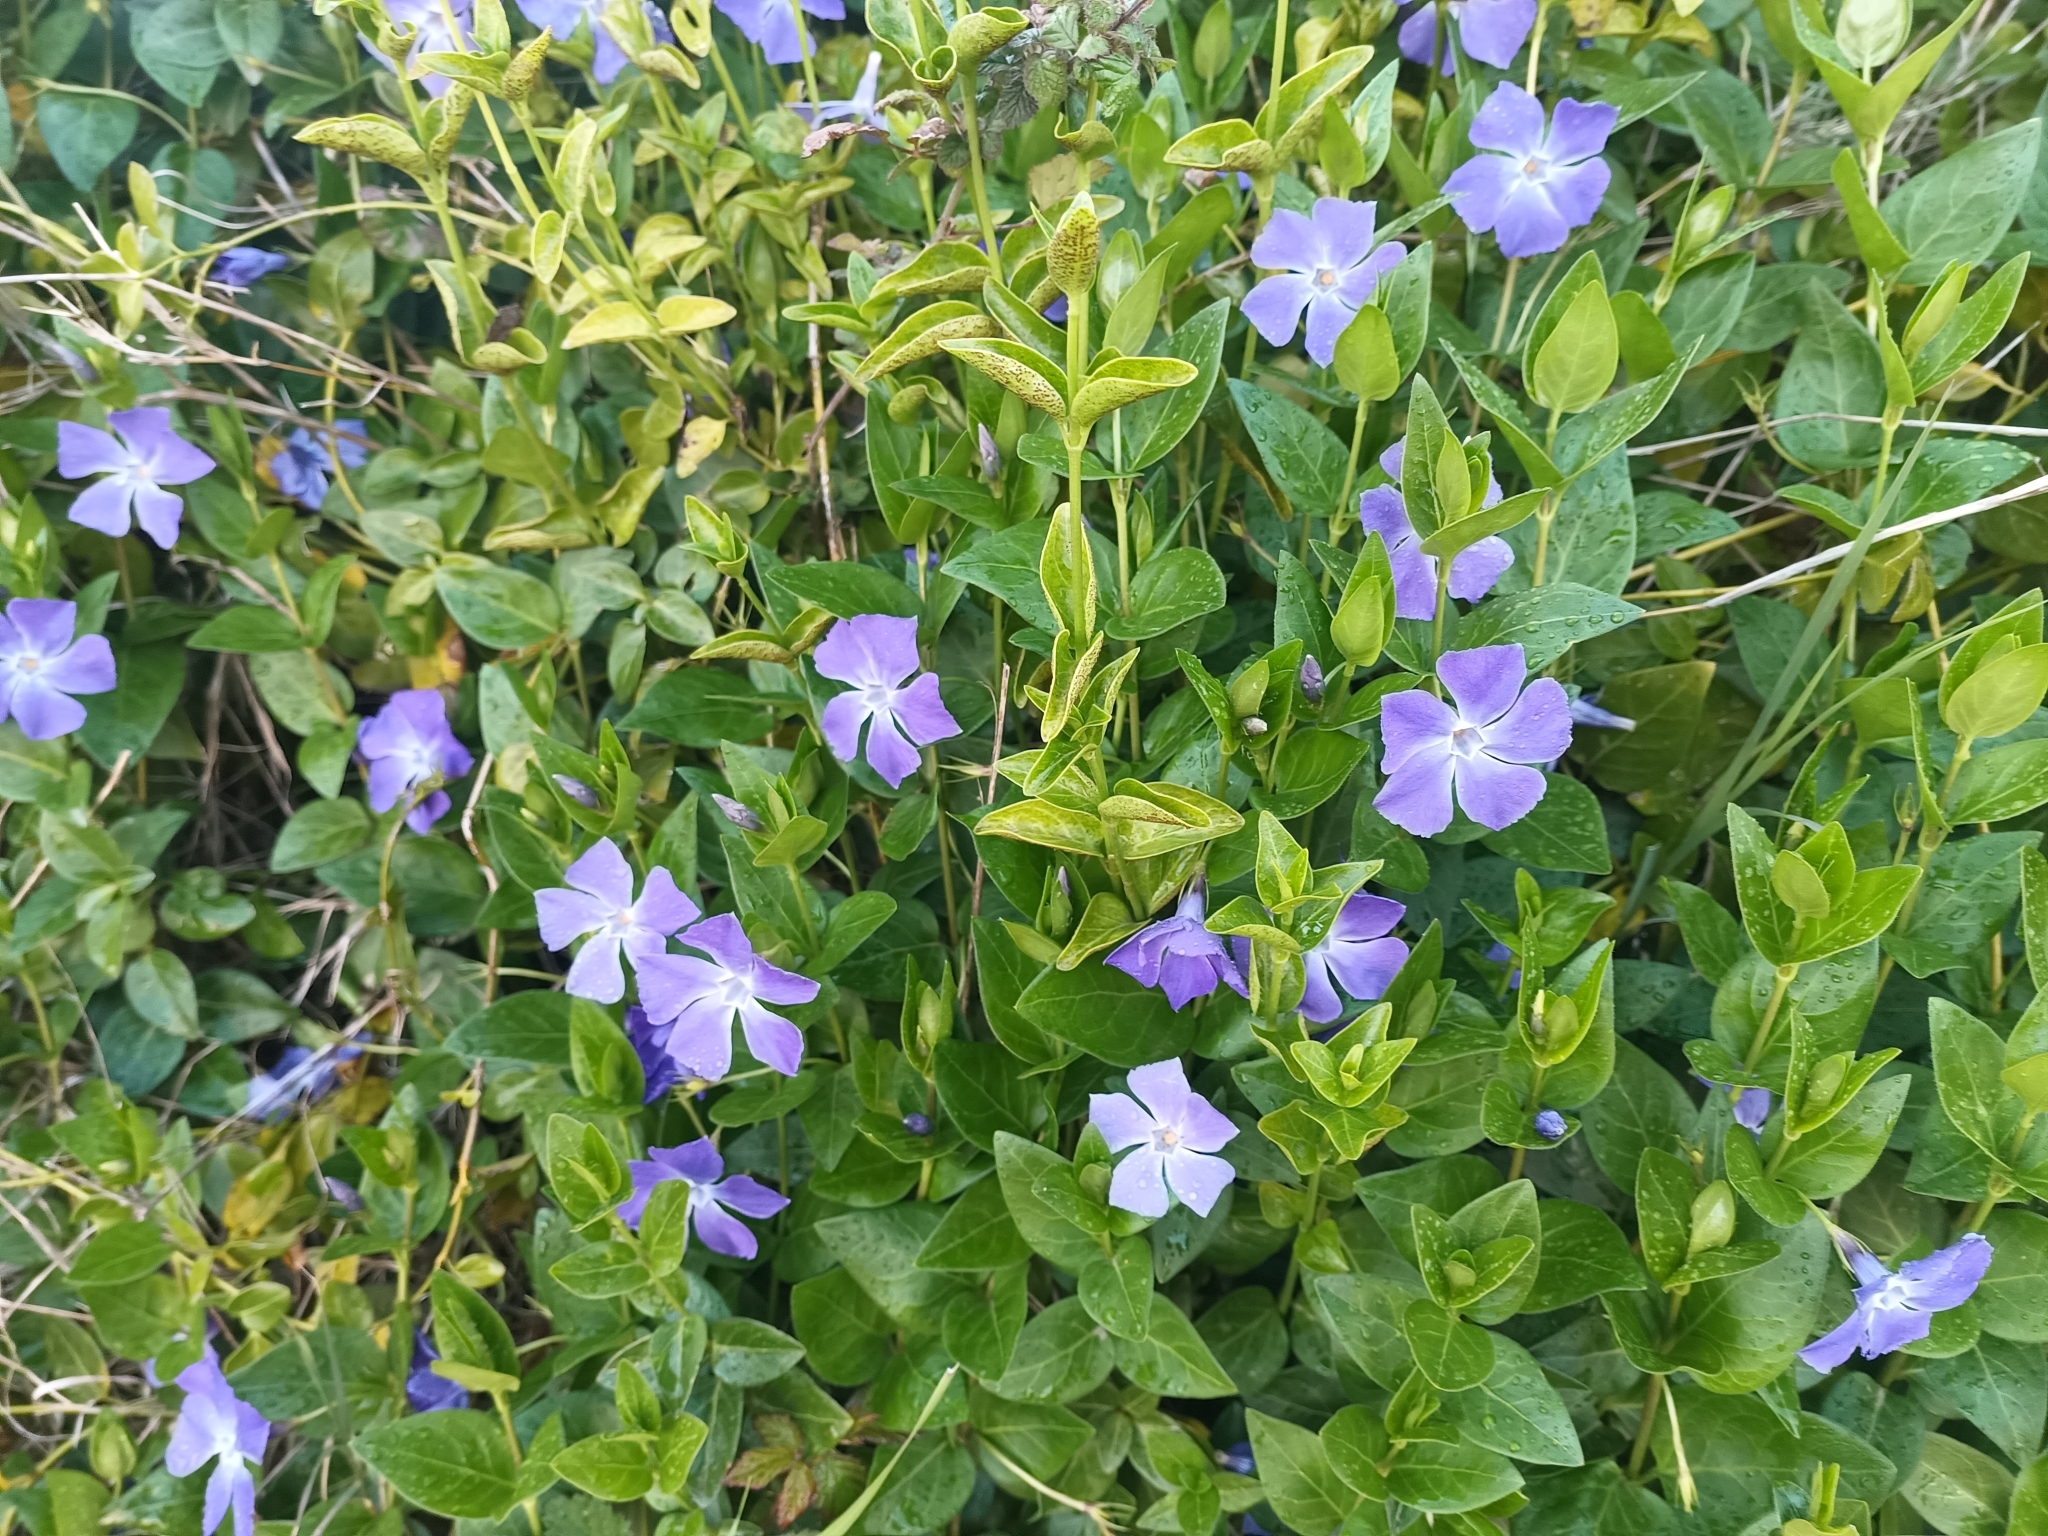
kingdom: Plantae
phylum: Tracheophyta
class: Magnoliopsida
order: Gentianales
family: Apocynaceae
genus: Vinca
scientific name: Vinca major
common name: Greater periwinkle
